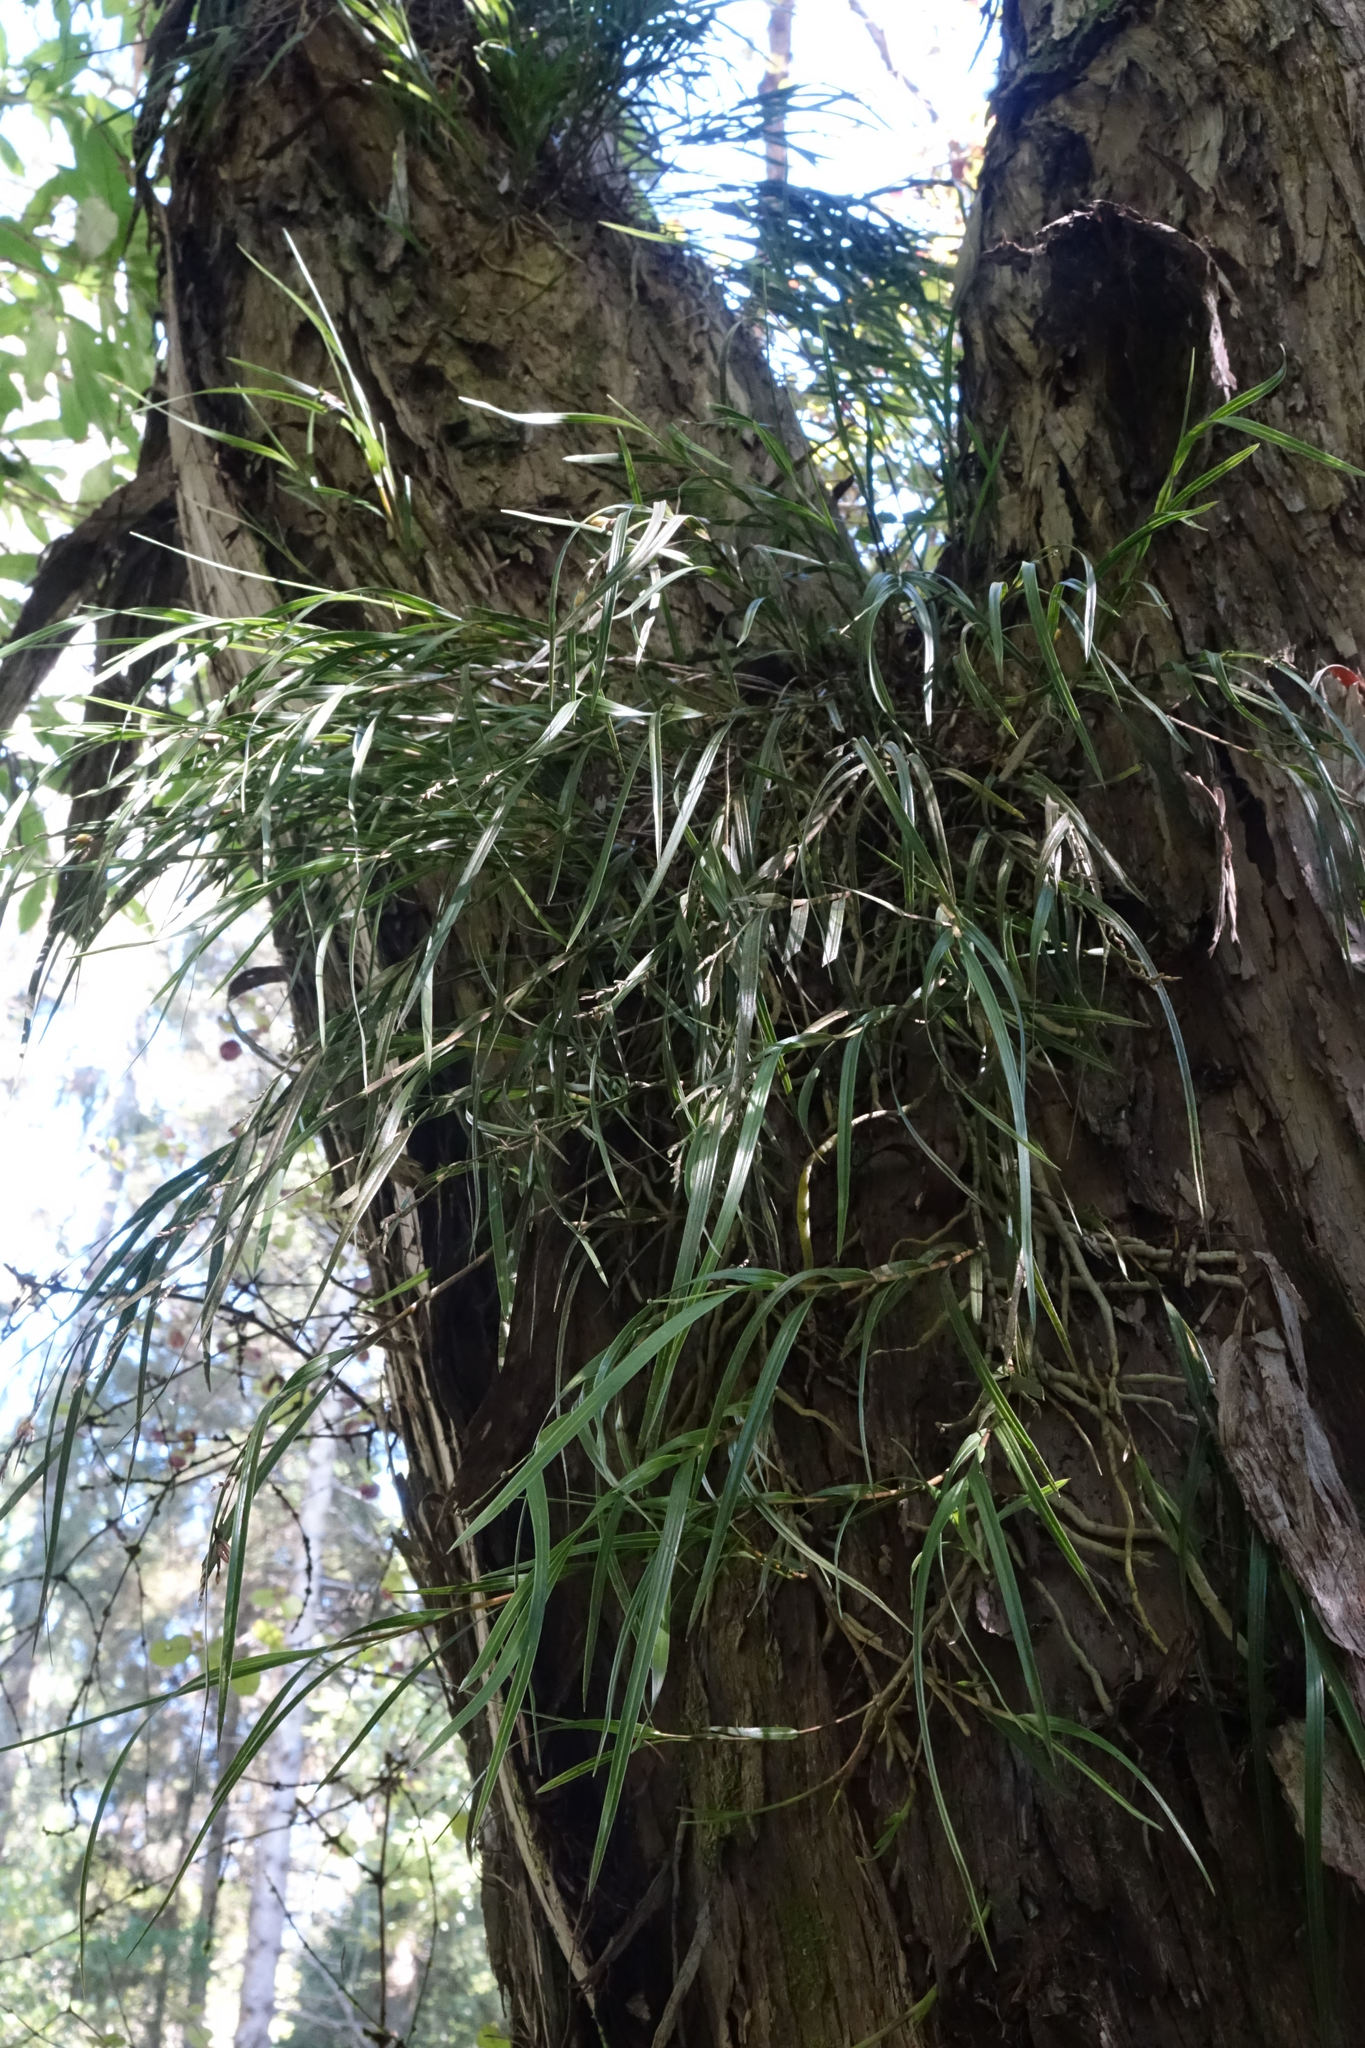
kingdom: Plantae
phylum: Tracheophyta
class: Liliopsida
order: Asparagales
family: Orchidaceae
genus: Earina
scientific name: Earina mucronata
